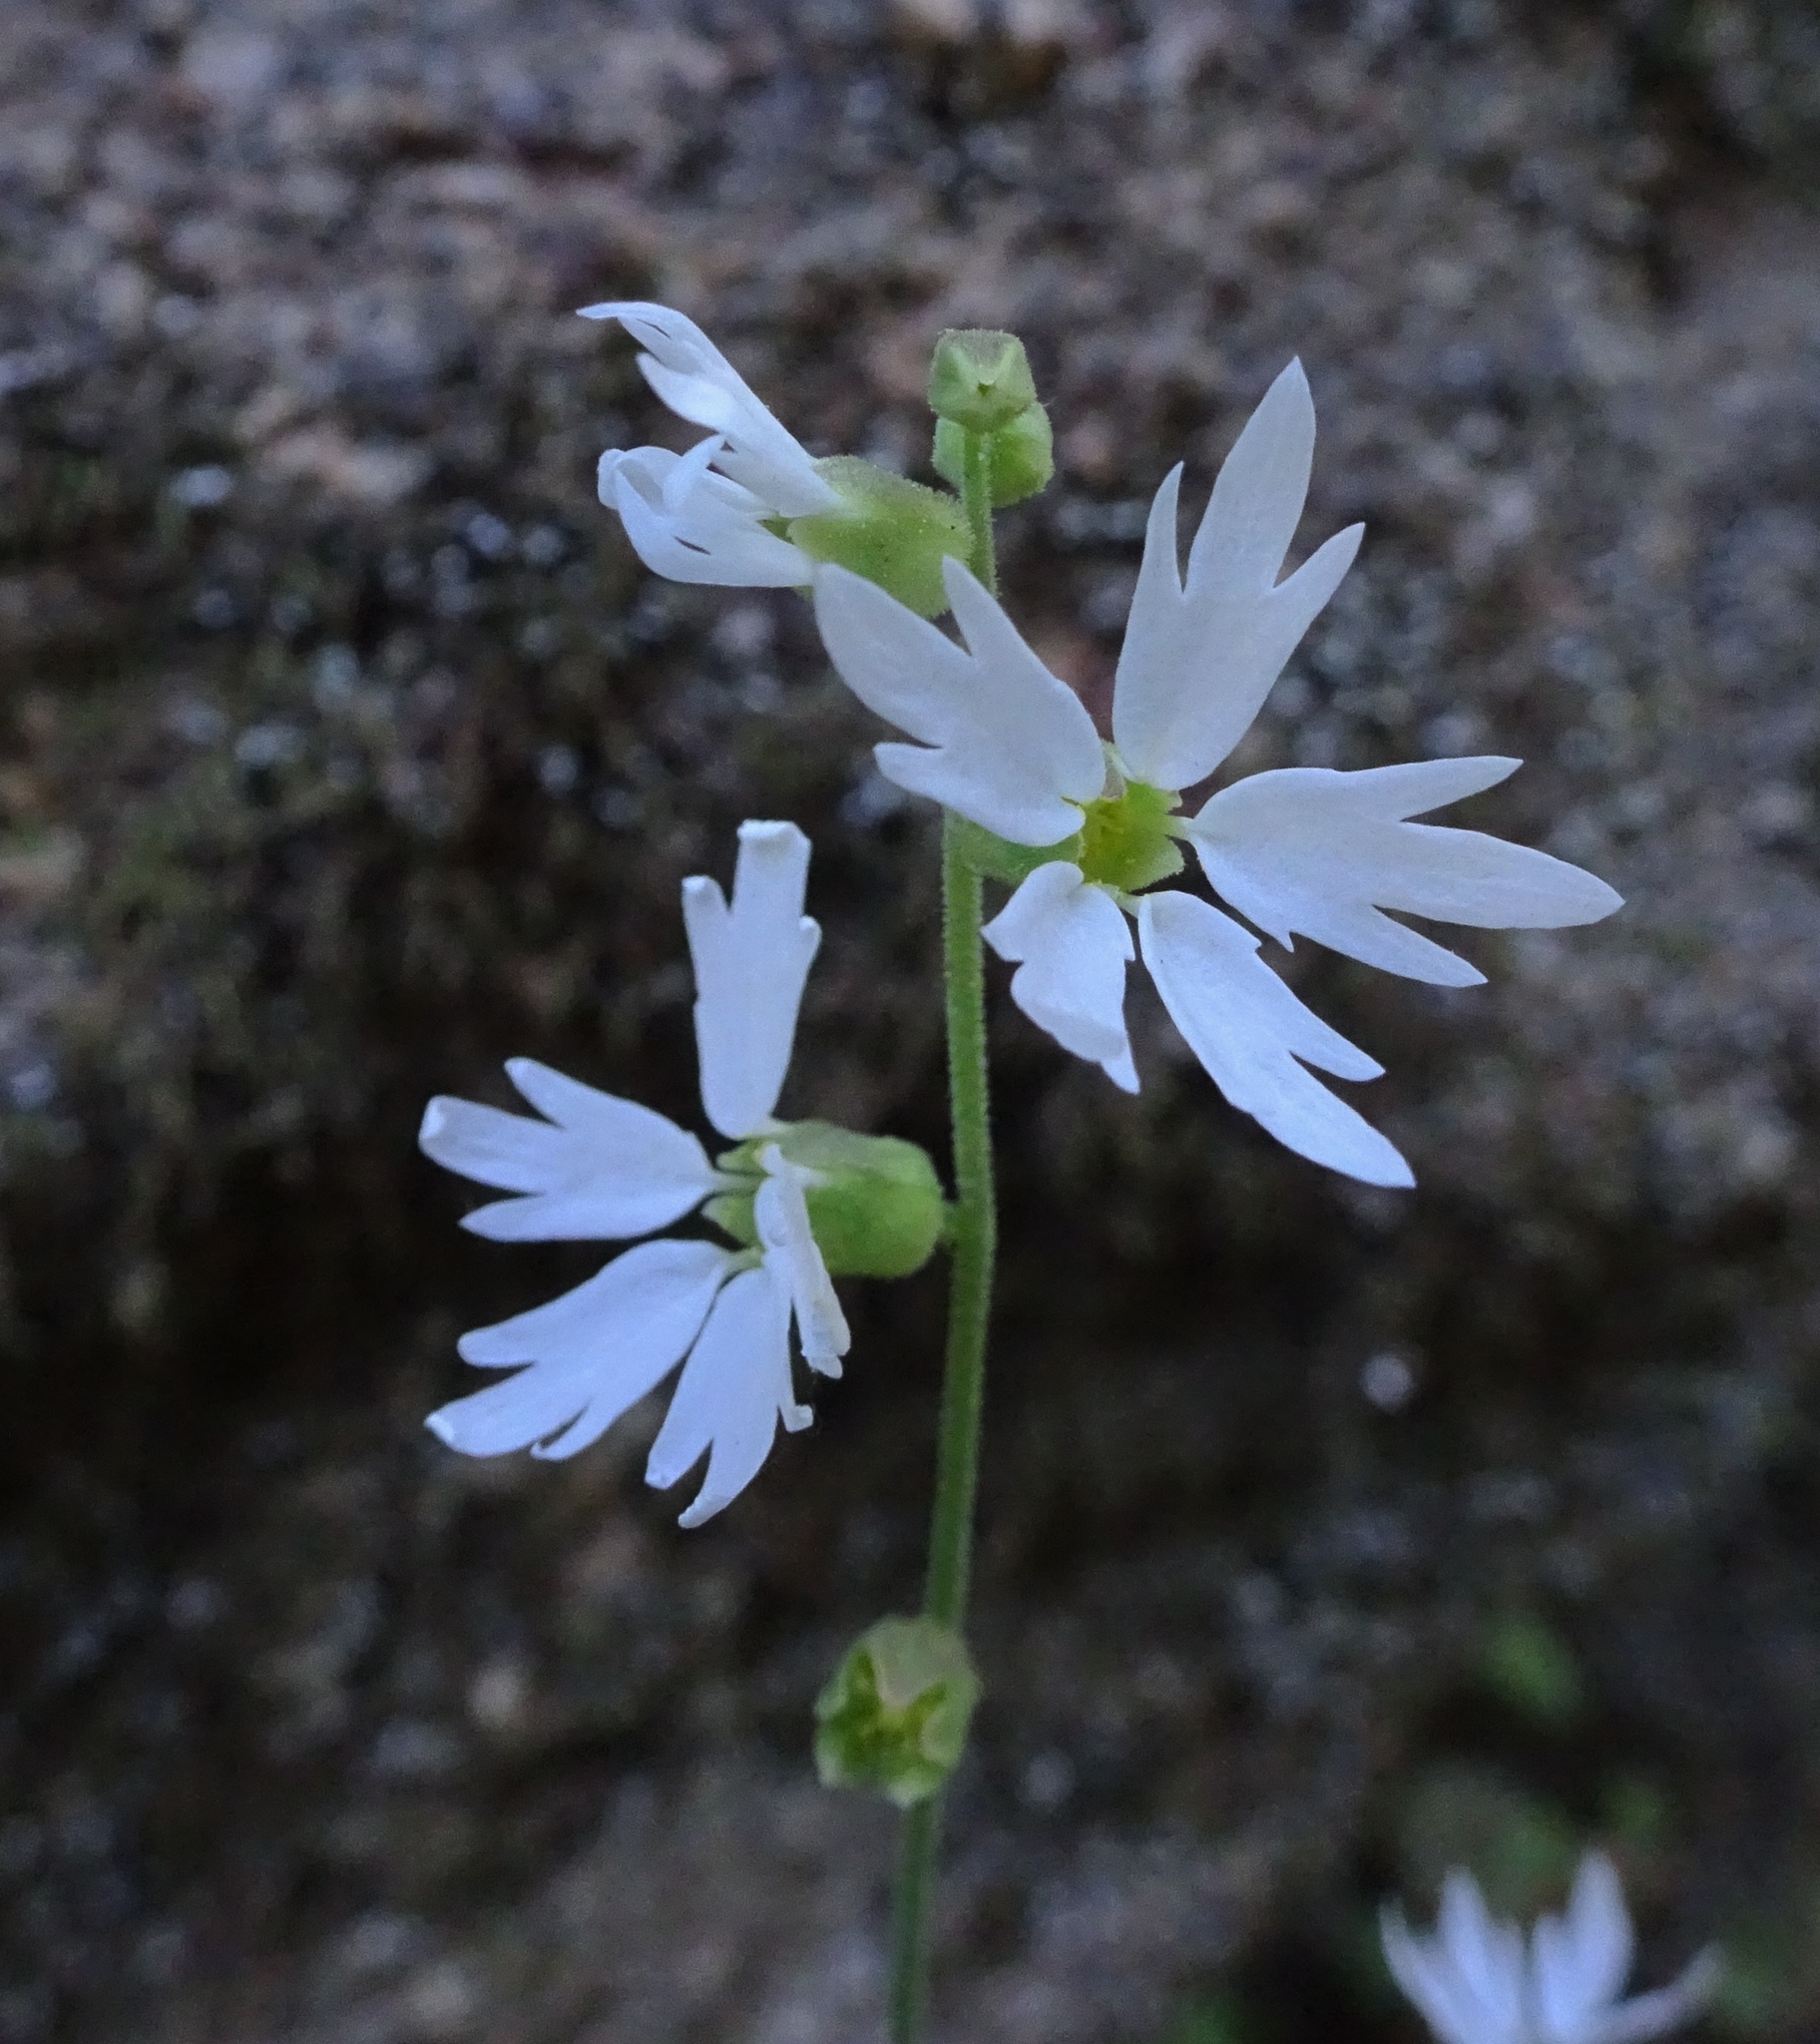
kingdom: Plantae
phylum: Tracheophyta
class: Magnoliopsida
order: Saxifragales
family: Saxifragaceae
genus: Lithophragma
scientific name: Lithophragma heterophyllum
